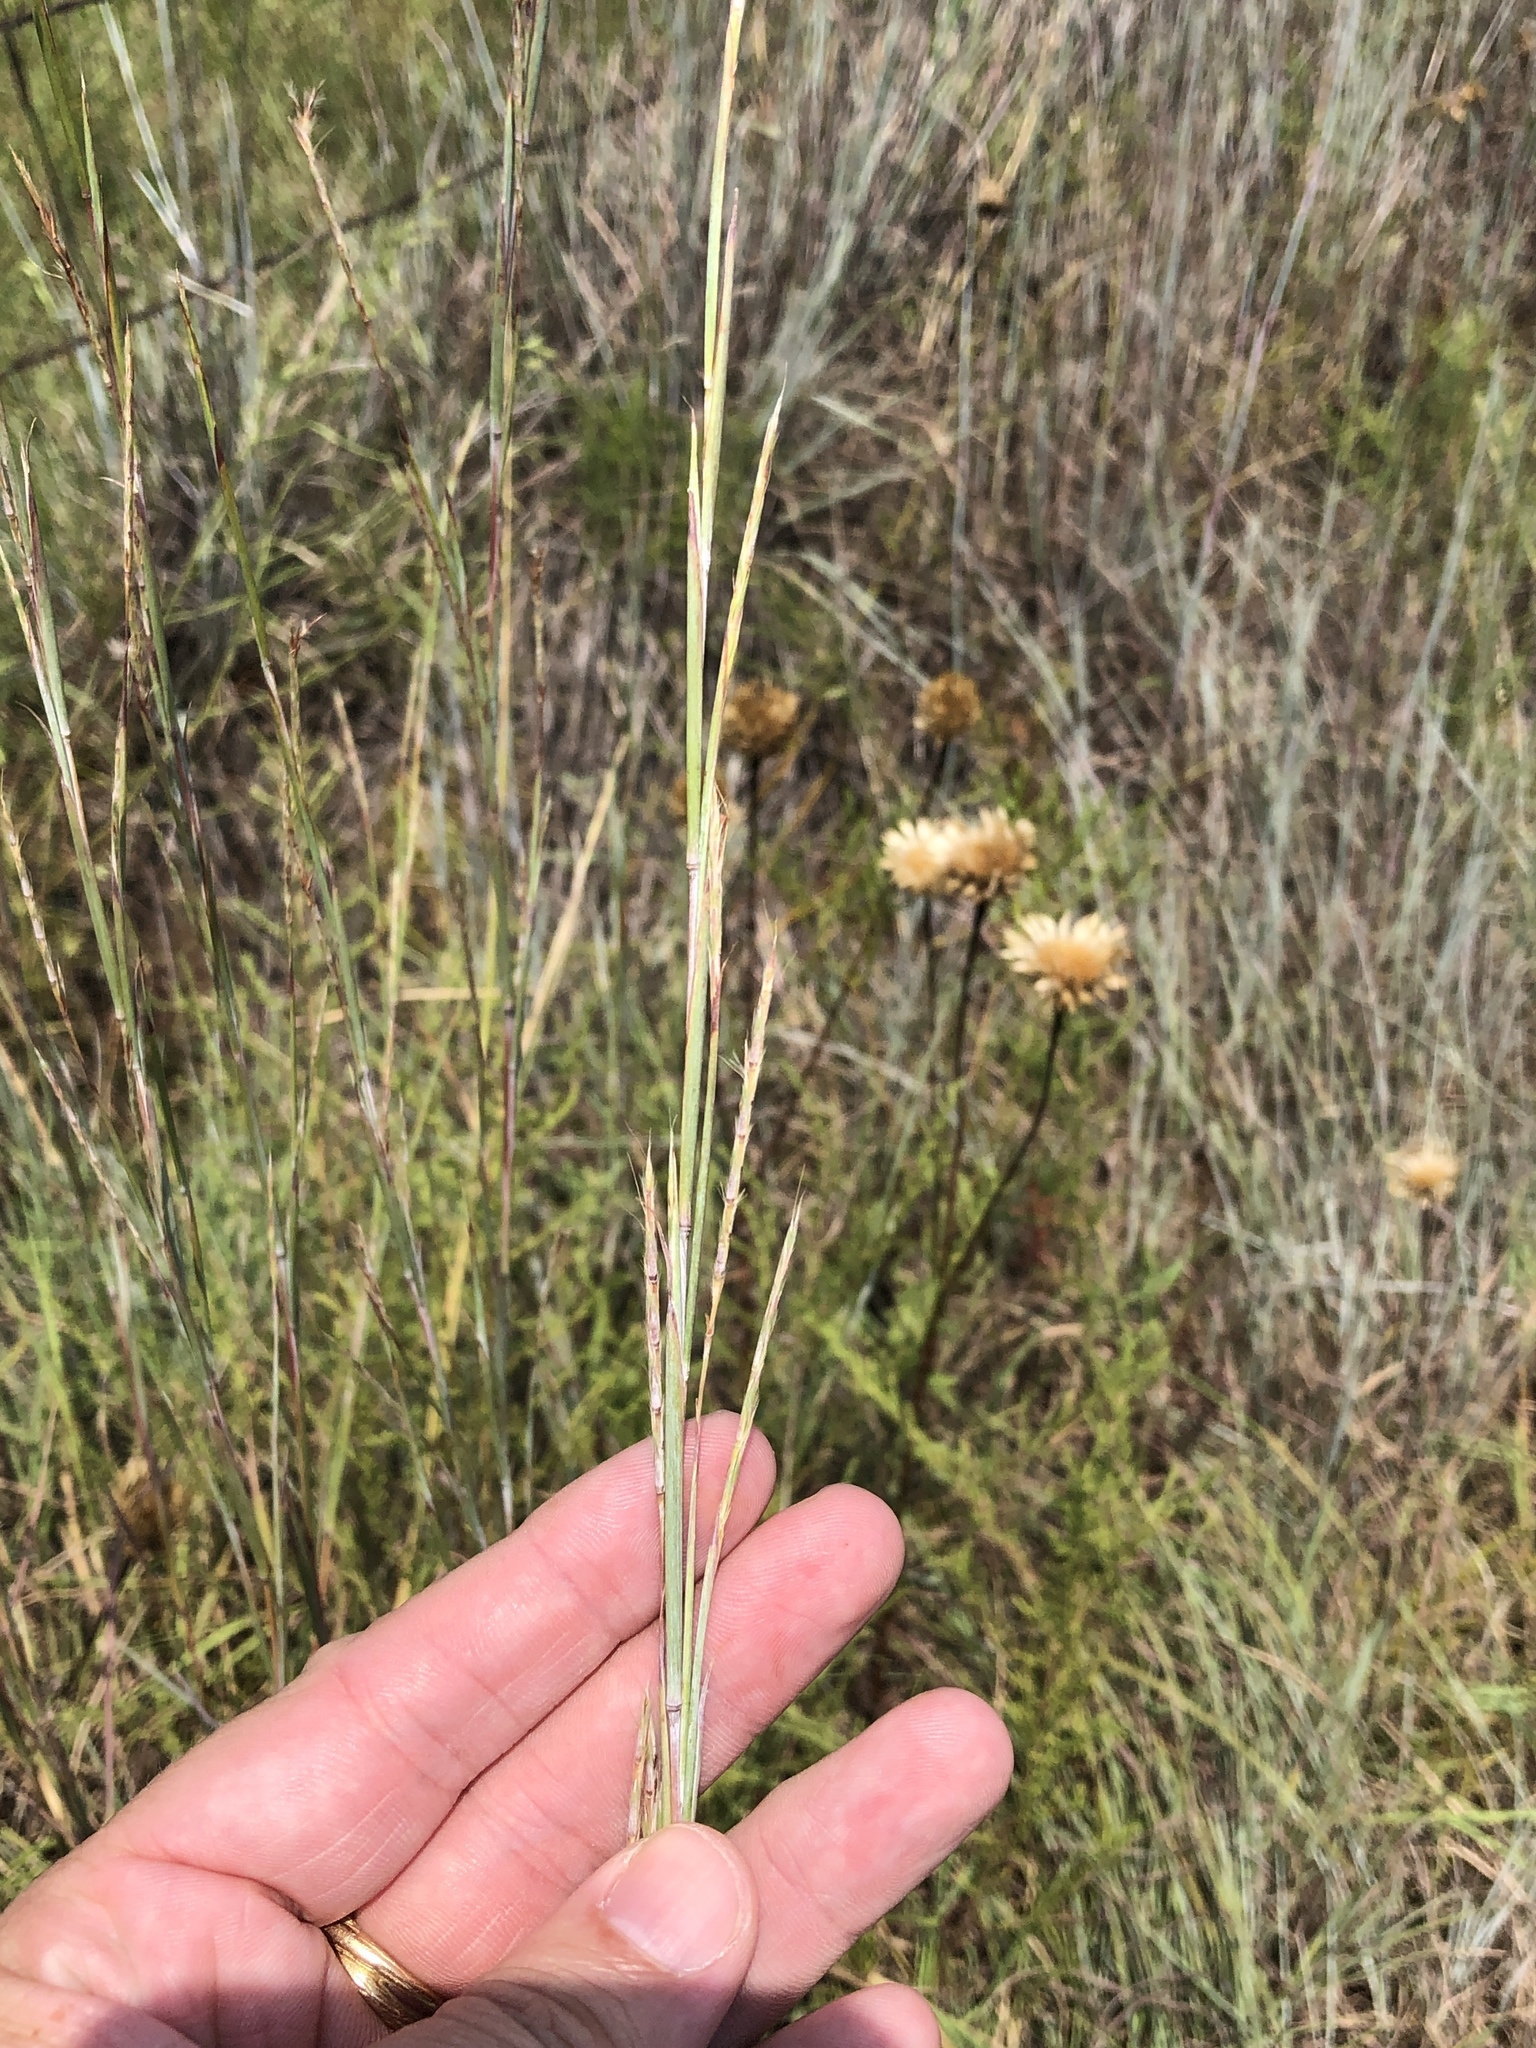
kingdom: Plantae
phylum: Tracheophyta
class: Liliopsida
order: Poales
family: Poaceae
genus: Schizachyrium
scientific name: Schizachyrium scoparium
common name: Little bluestem
